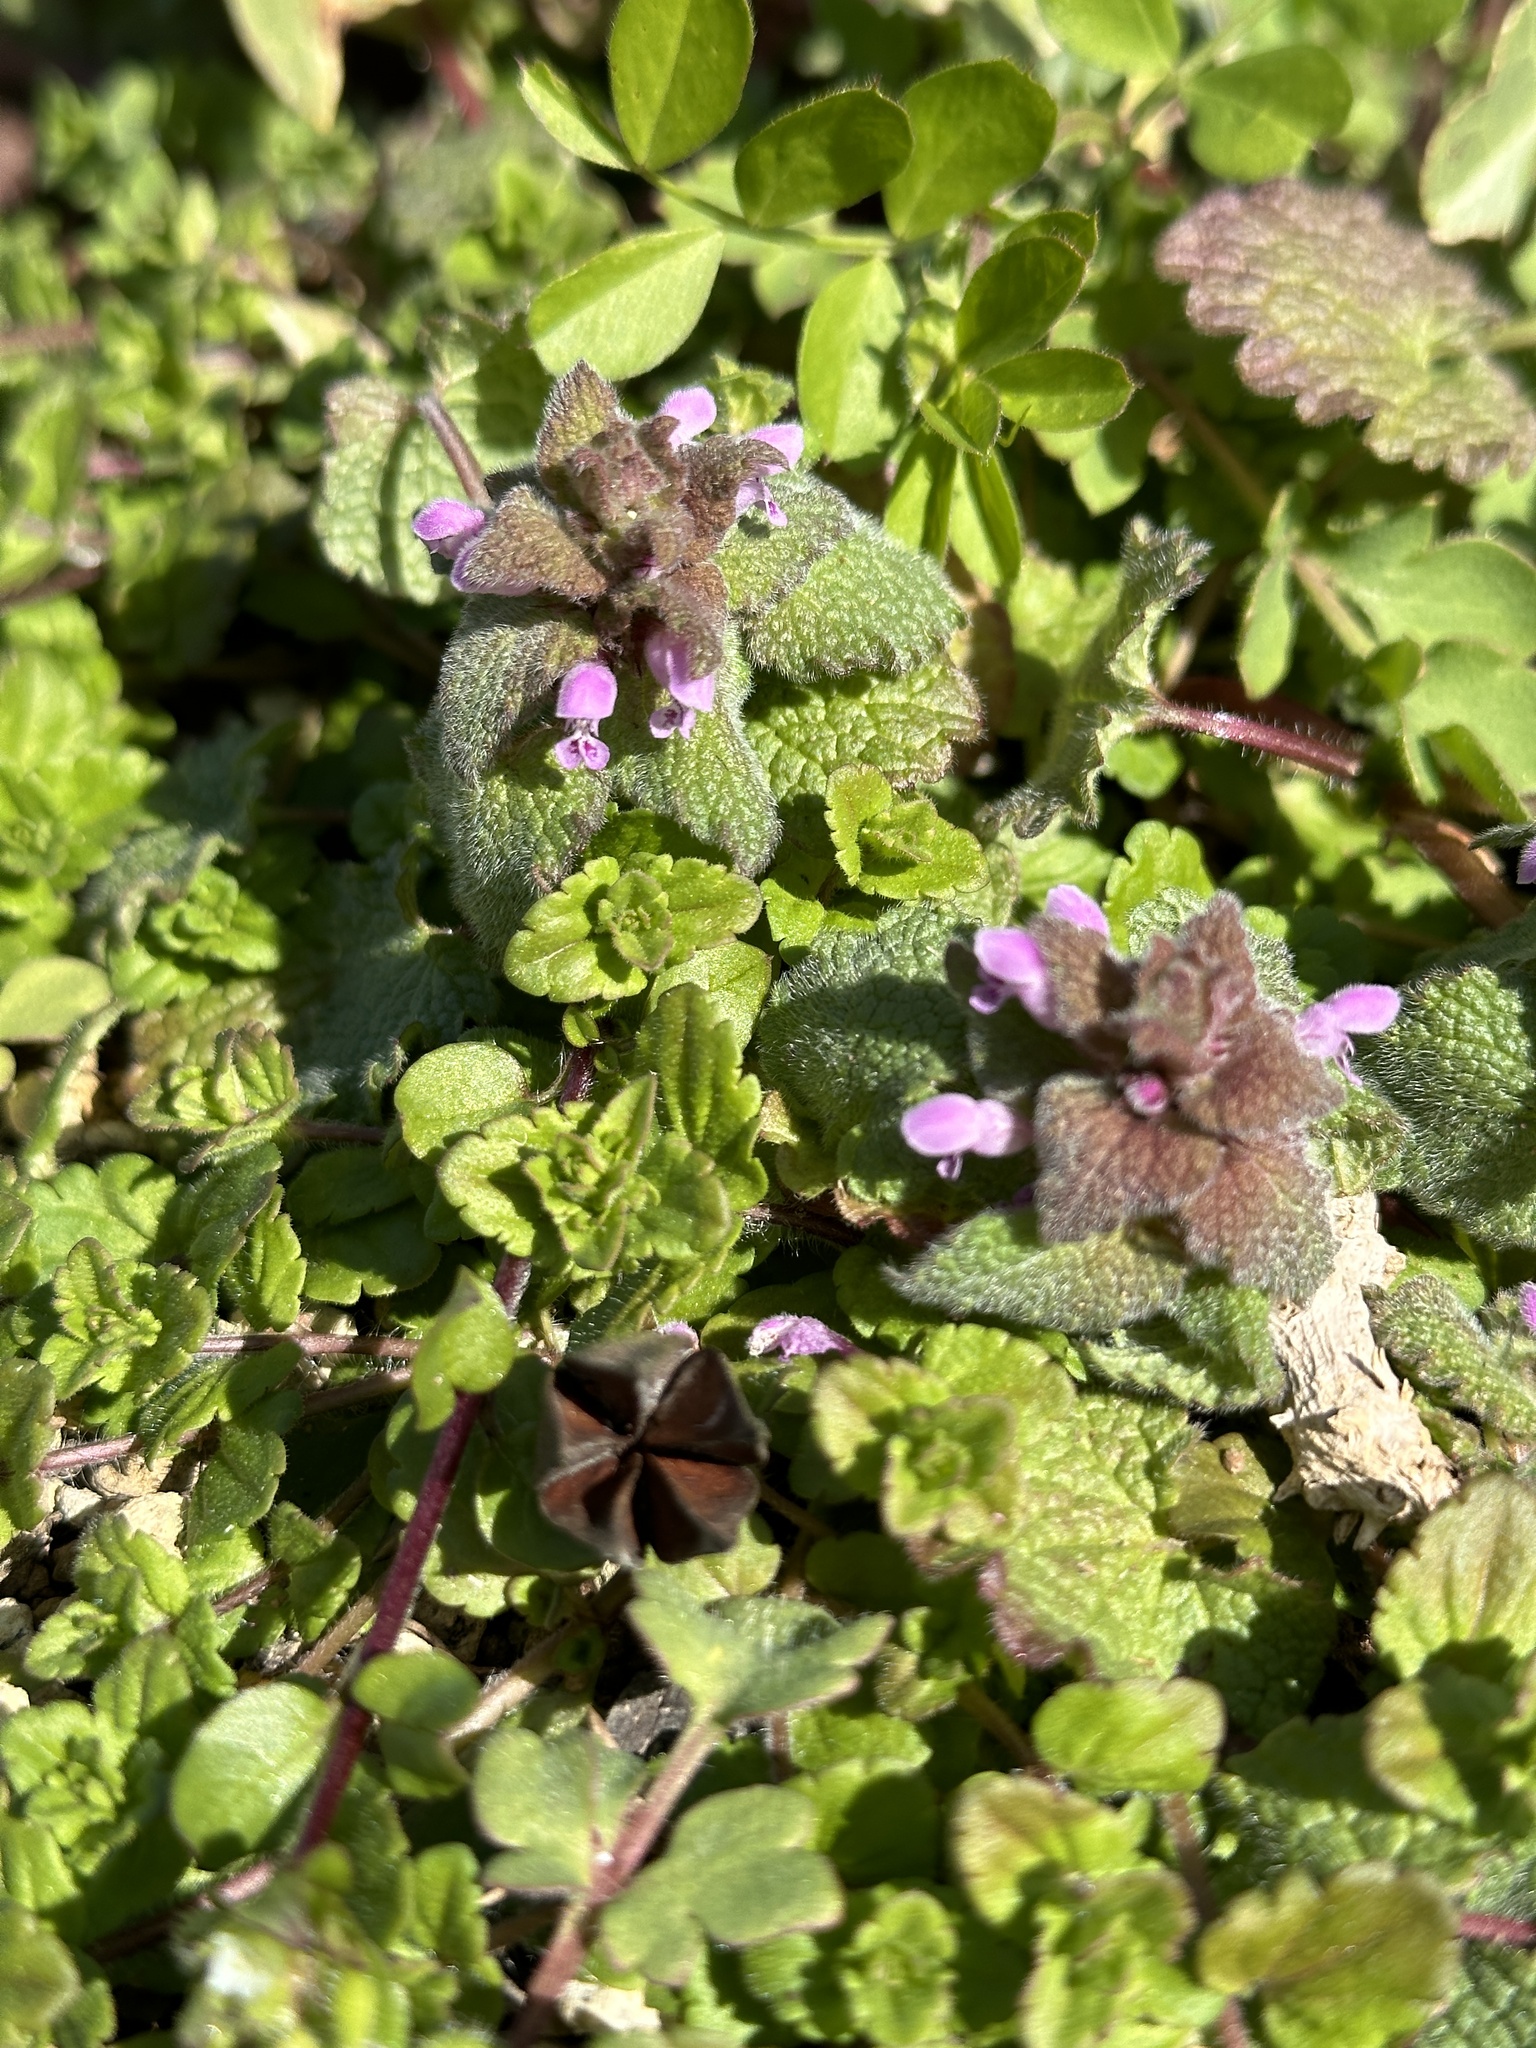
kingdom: Plantae
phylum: Tracheophyta
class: Magnoliopsida
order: Lamiales
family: Lamiaceae
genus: Lamium
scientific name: Lamium purpureum
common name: Red dead-nettle
